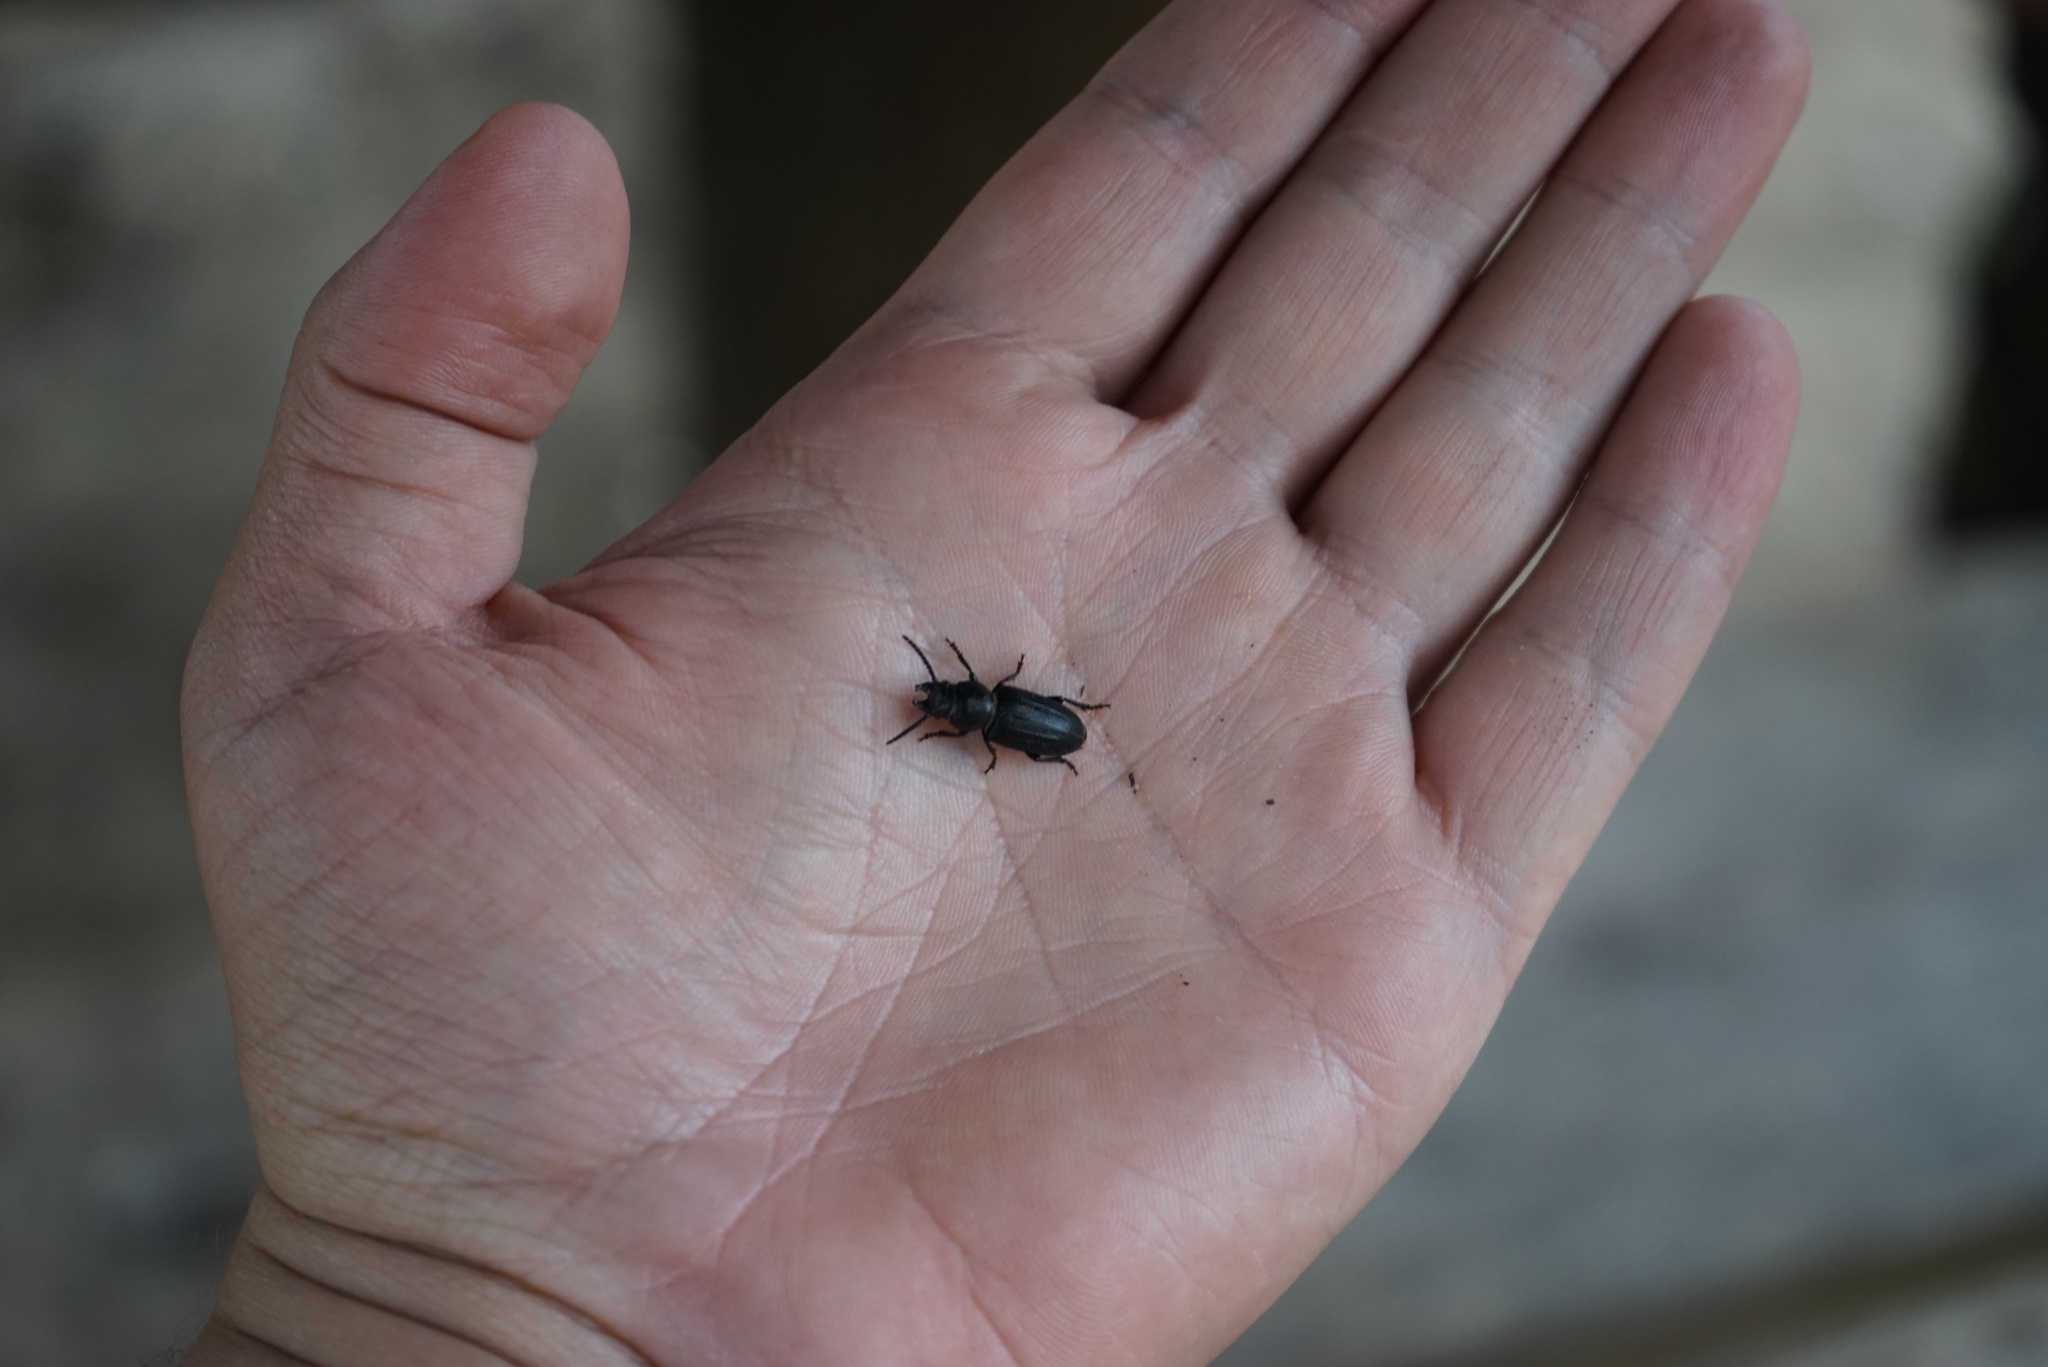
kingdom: Animalia
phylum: Arthropoda
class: Insecta
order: Coleoptera
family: Cerambycidae
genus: Spondylis
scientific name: Spondylis buprestoides
